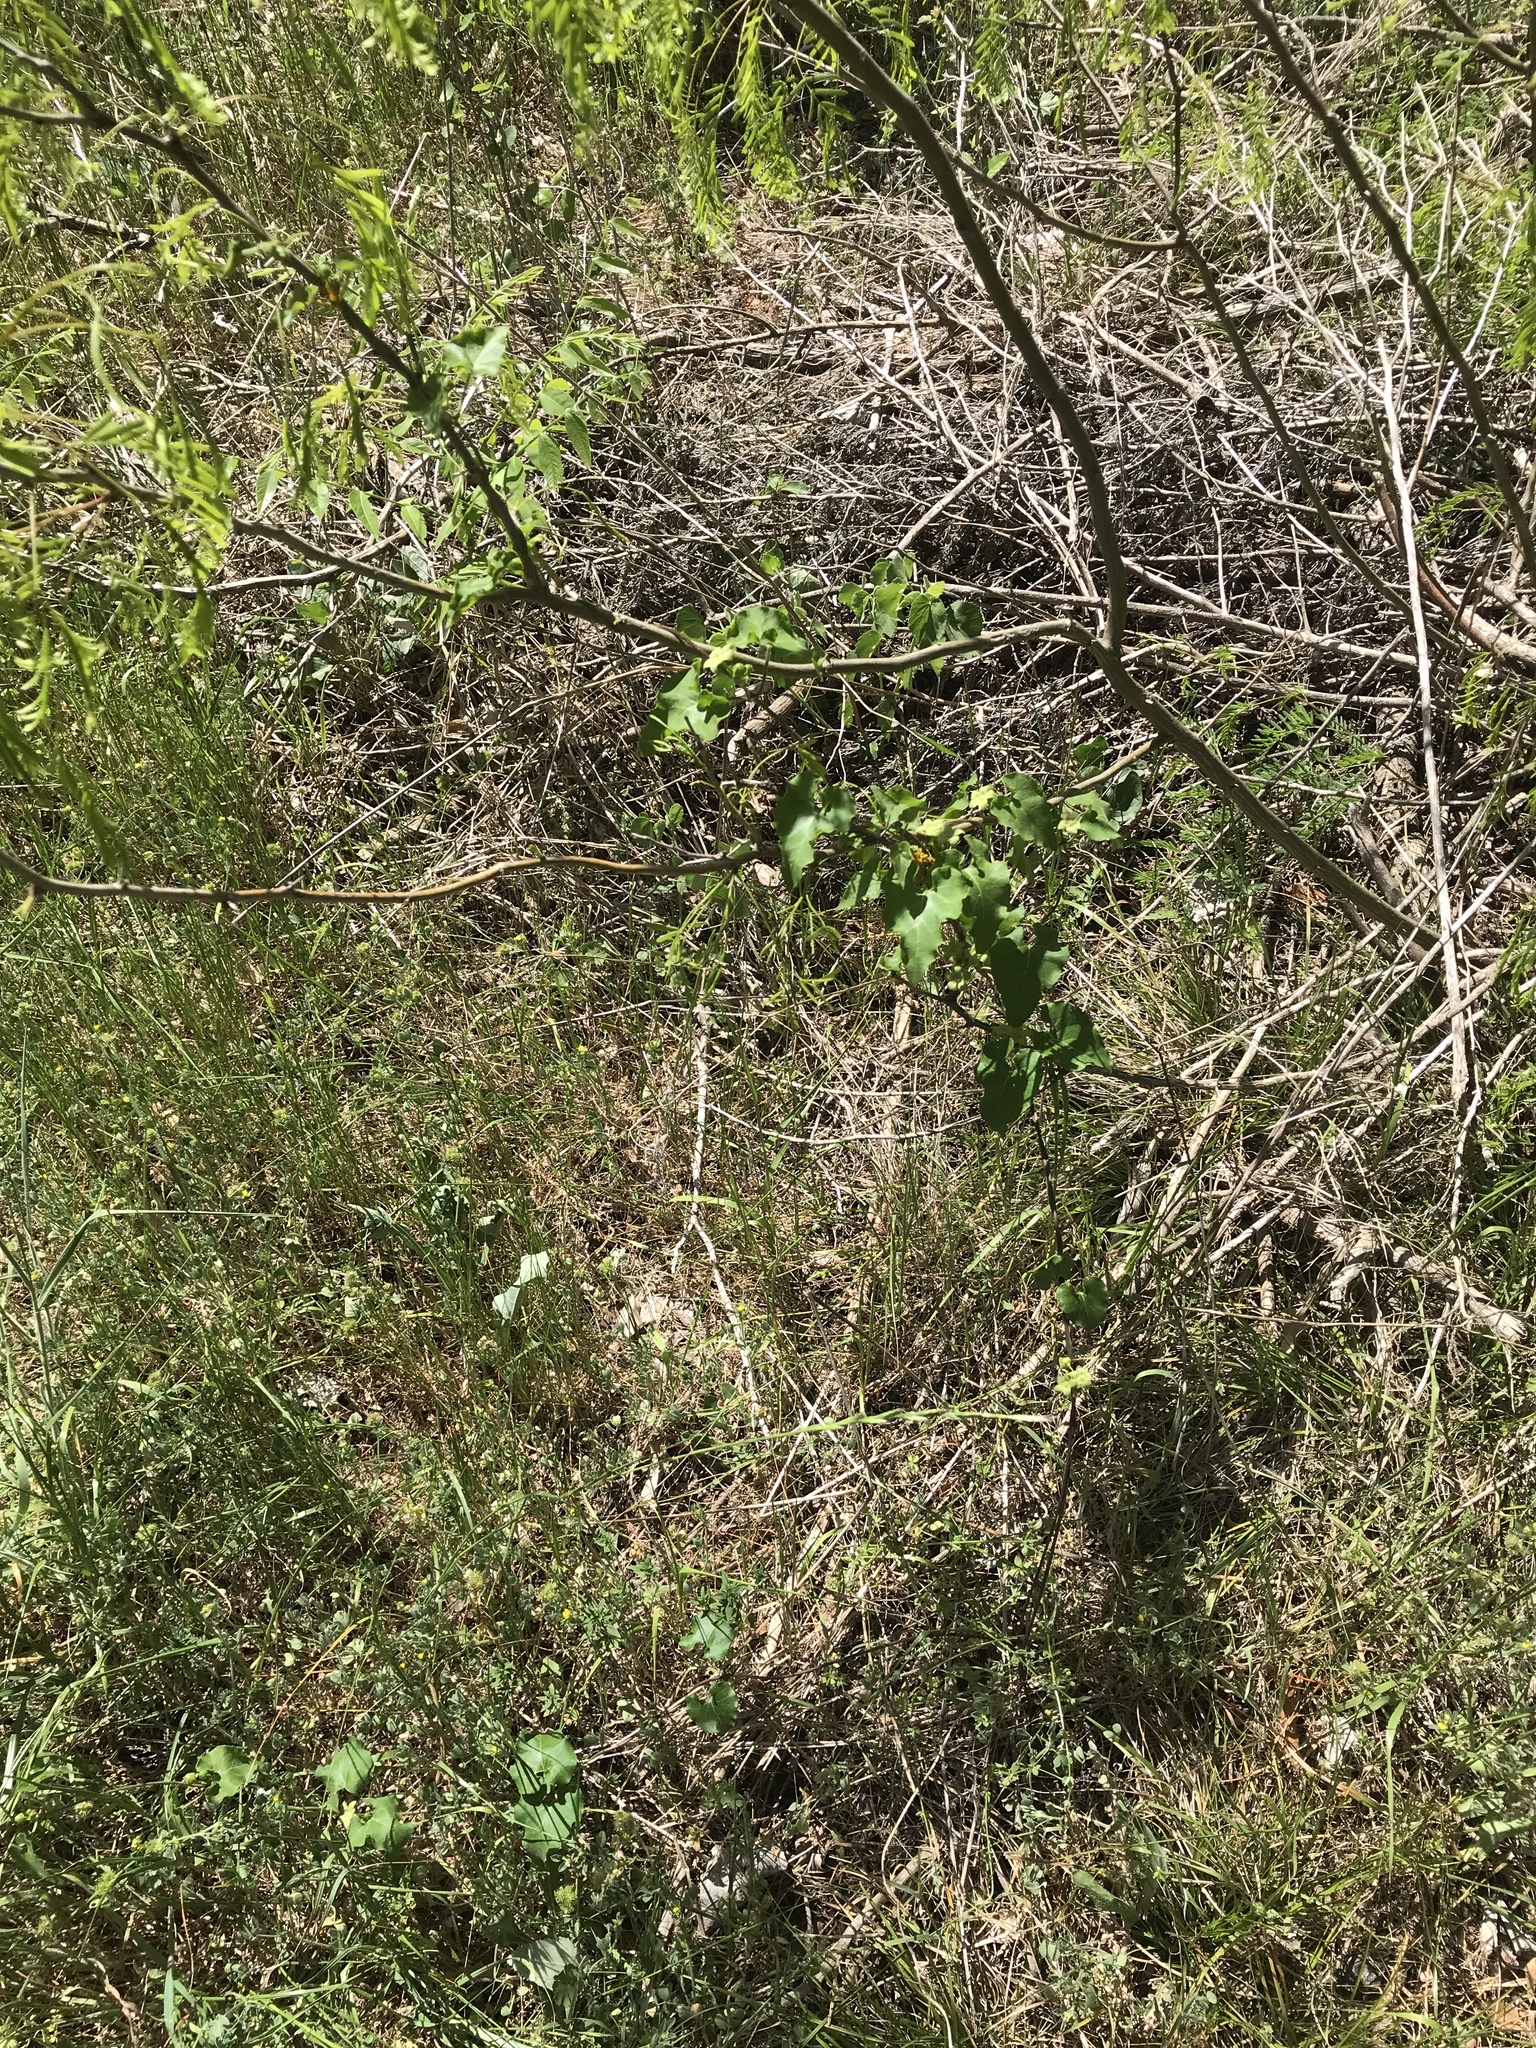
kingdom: Plantae
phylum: Tracheophyta
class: Magnoliopsida
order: Gentianales
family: Apocynaceae
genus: Matelea
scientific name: Matelea edwardsensis
